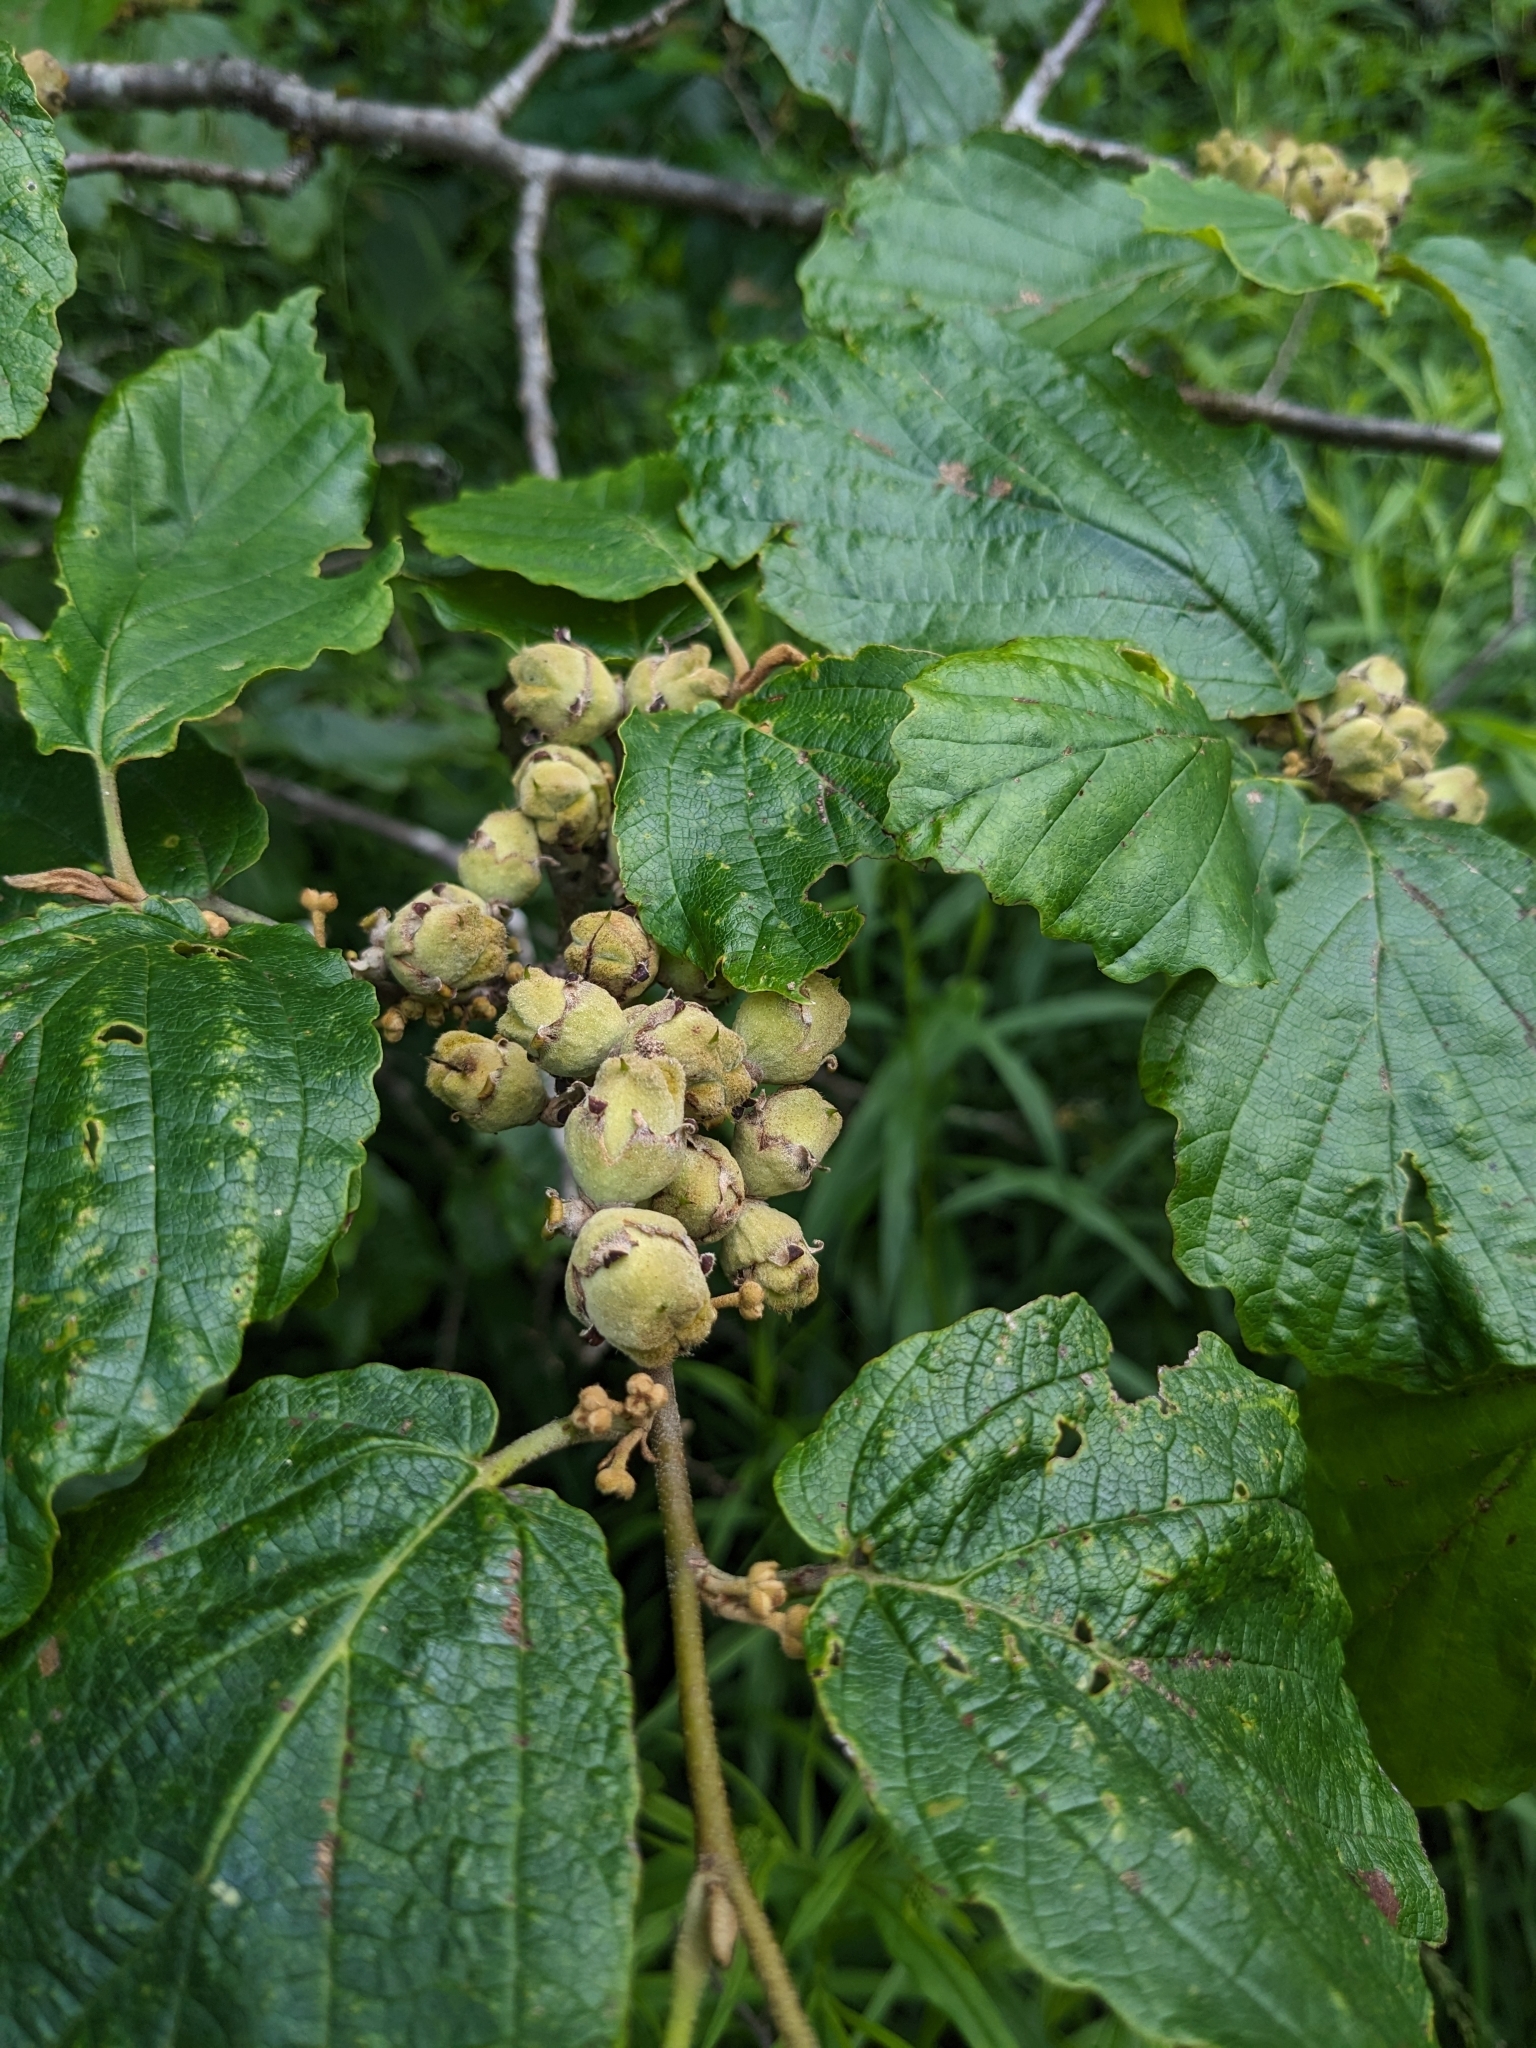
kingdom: Plantae
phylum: Tracheophyta
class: Magnoliopsida
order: Saxifragales
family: Hamamelidaceae
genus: Hamamelis
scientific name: Hamamelis virginiana
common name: Witch-hazel
